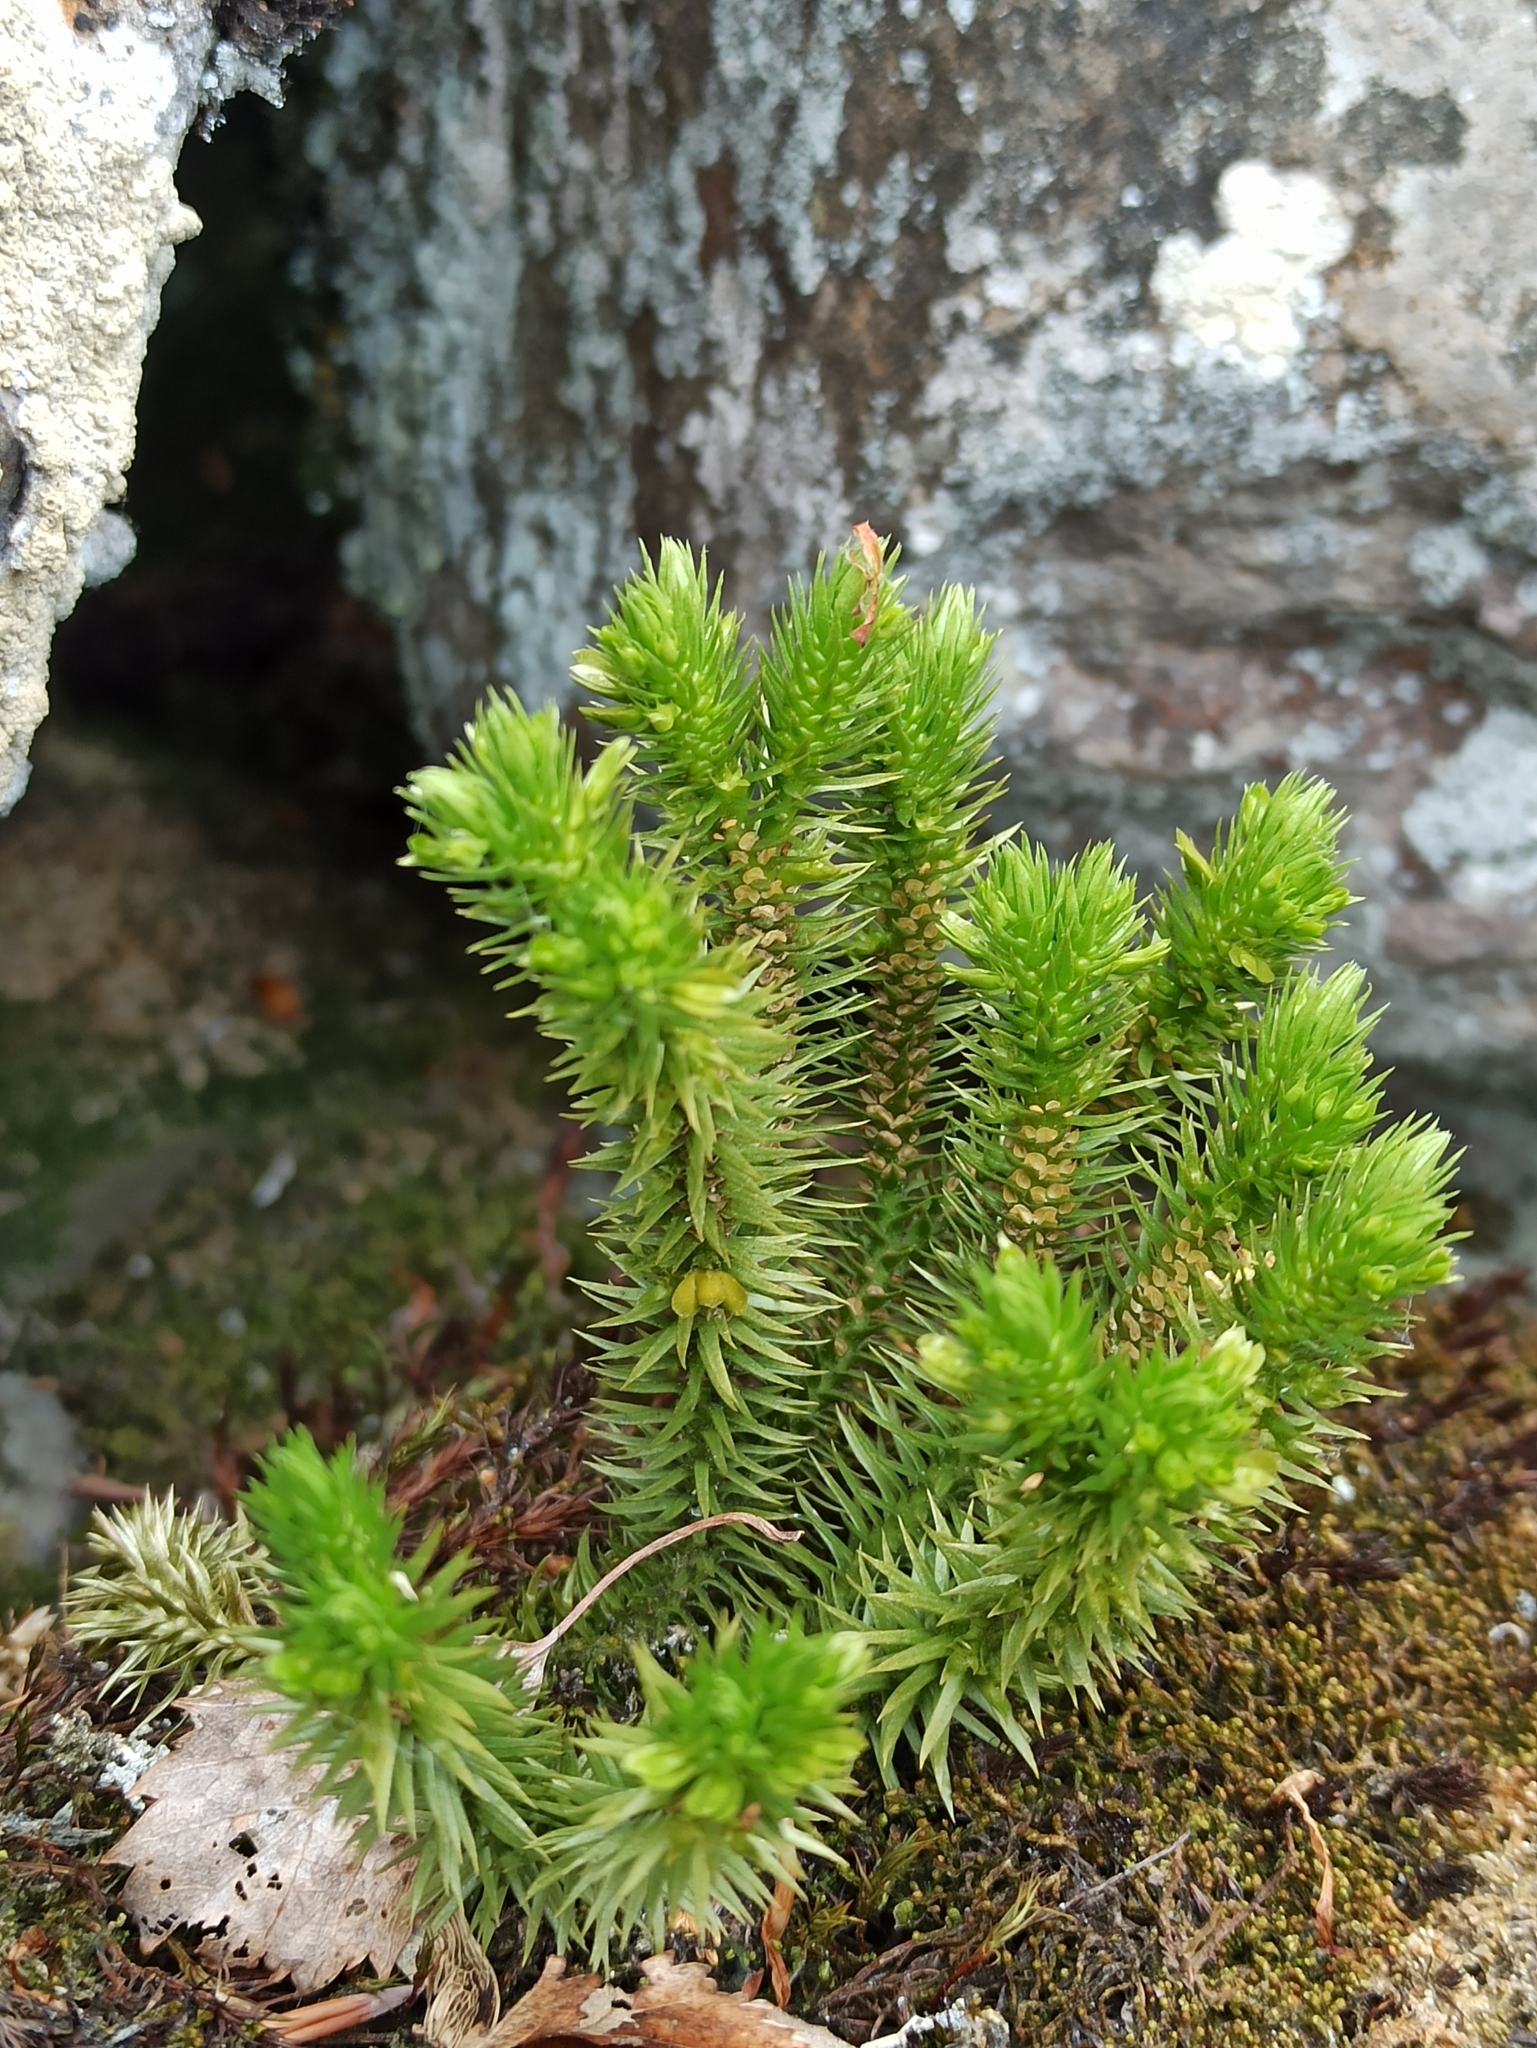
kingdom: Plantae
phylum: Tracheophyta
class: Lycopodiopsida
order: Lycopodiales
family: Lycopodiaceae
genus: Huperzia
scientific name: Huperzia selago
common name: Northern firmoss
